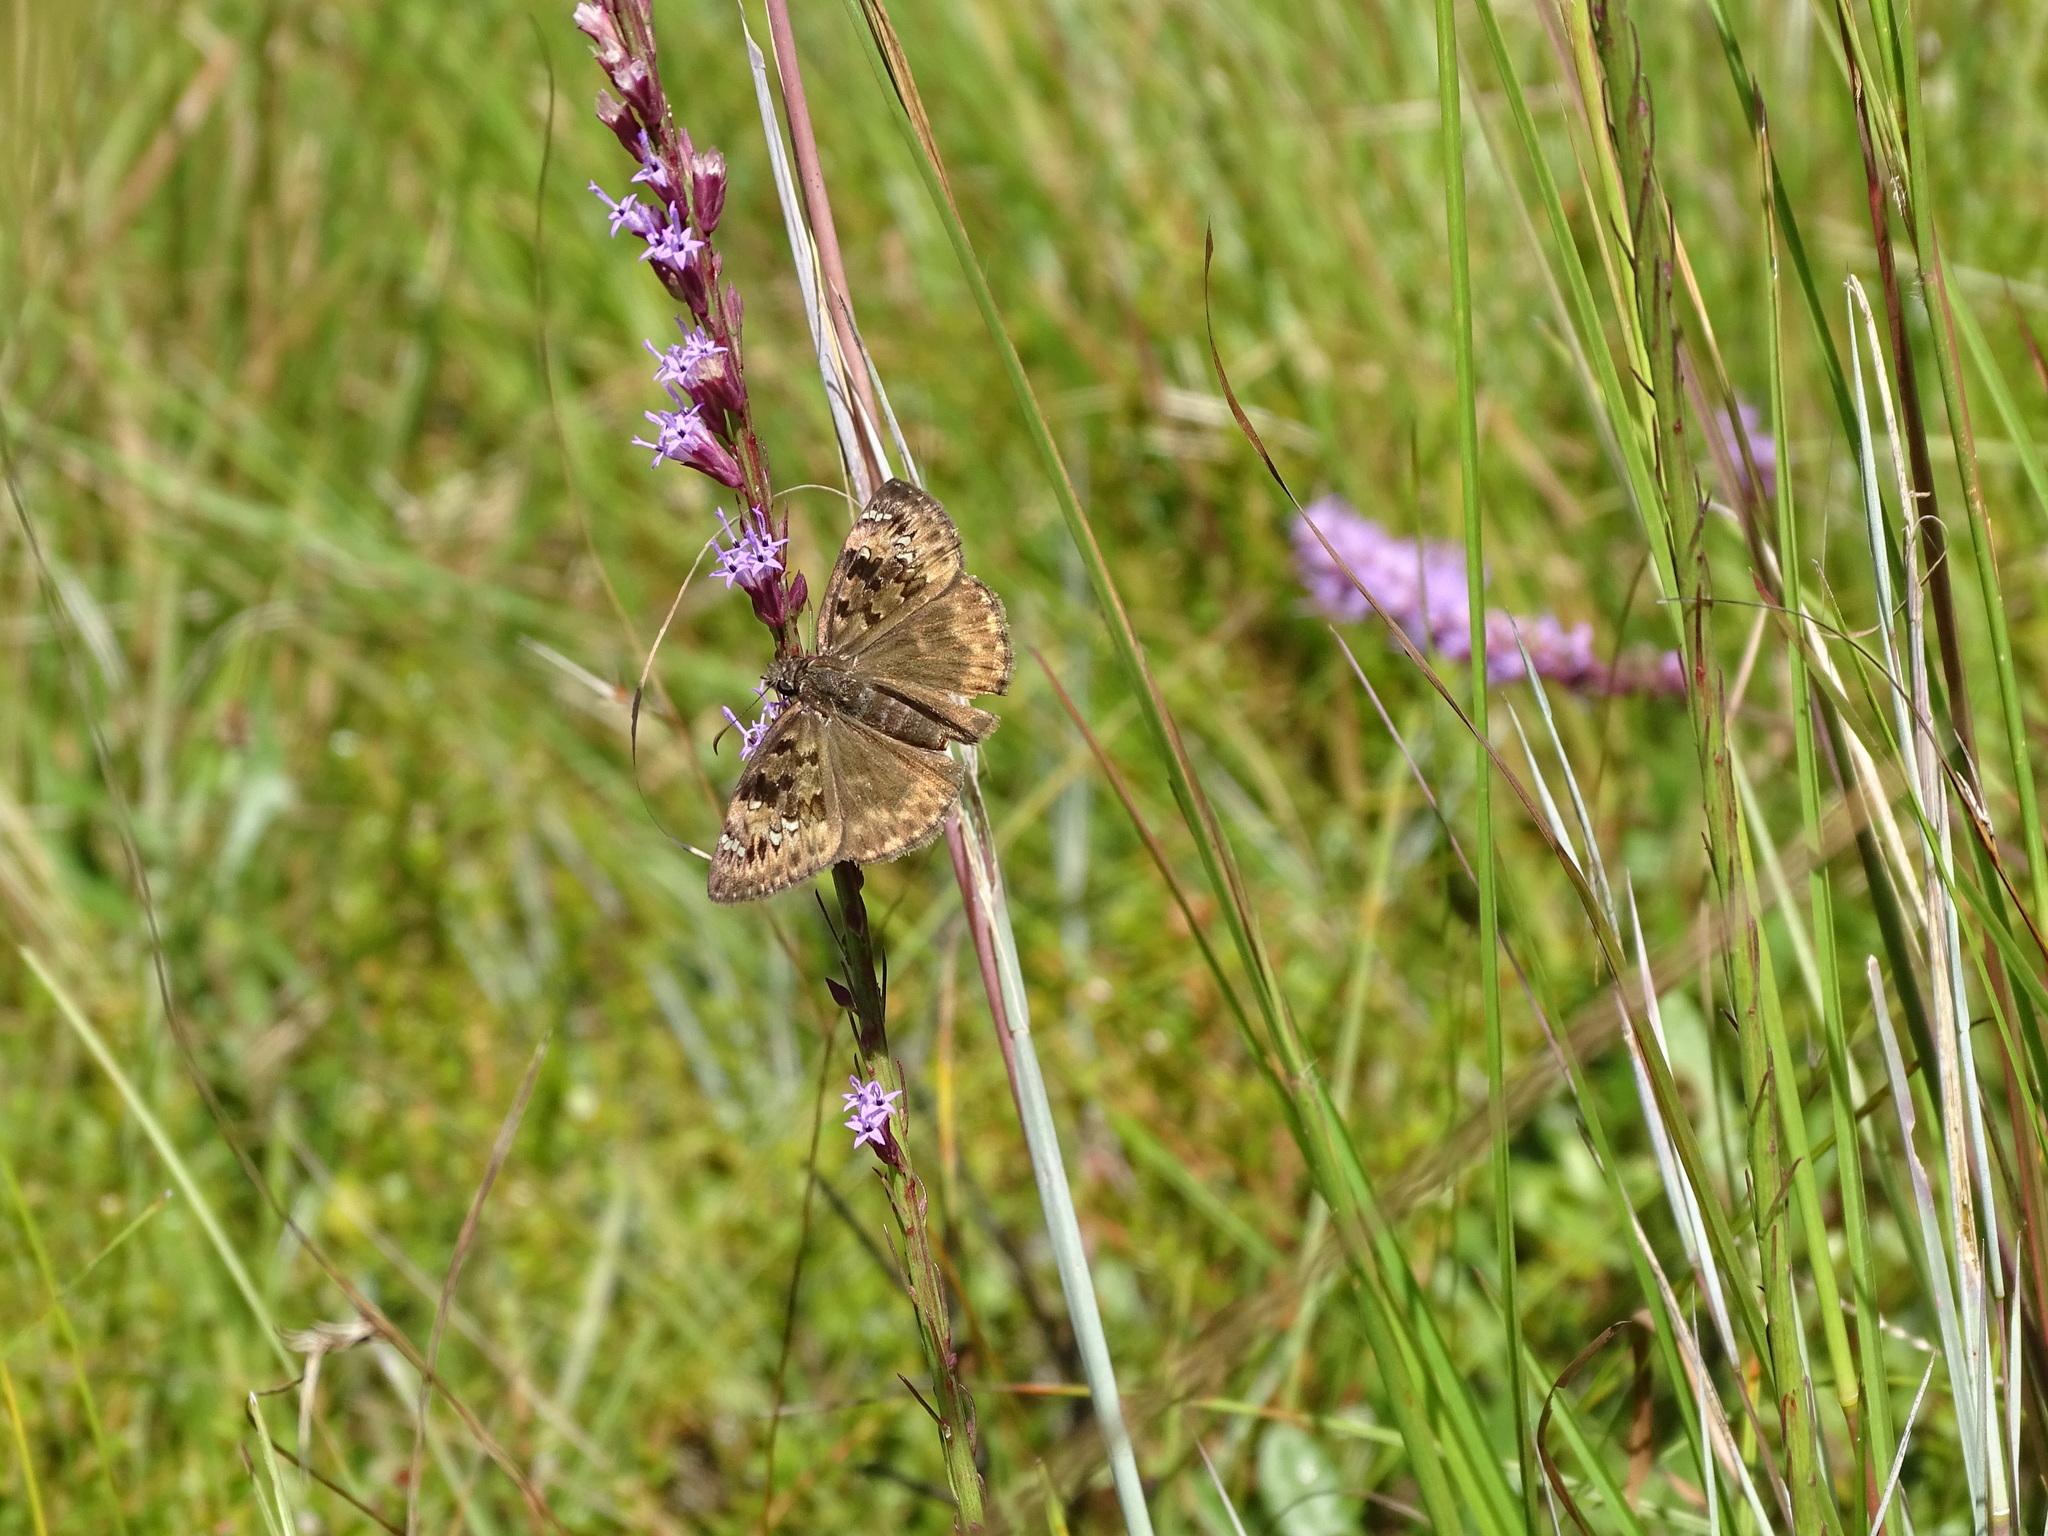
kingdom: Animalia
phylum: Arthropoda
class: Insecta
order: Lepidoptera
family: Hesperiidae
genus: Erynnis
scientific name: Erynnis horatius
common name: Horace's duskywing
